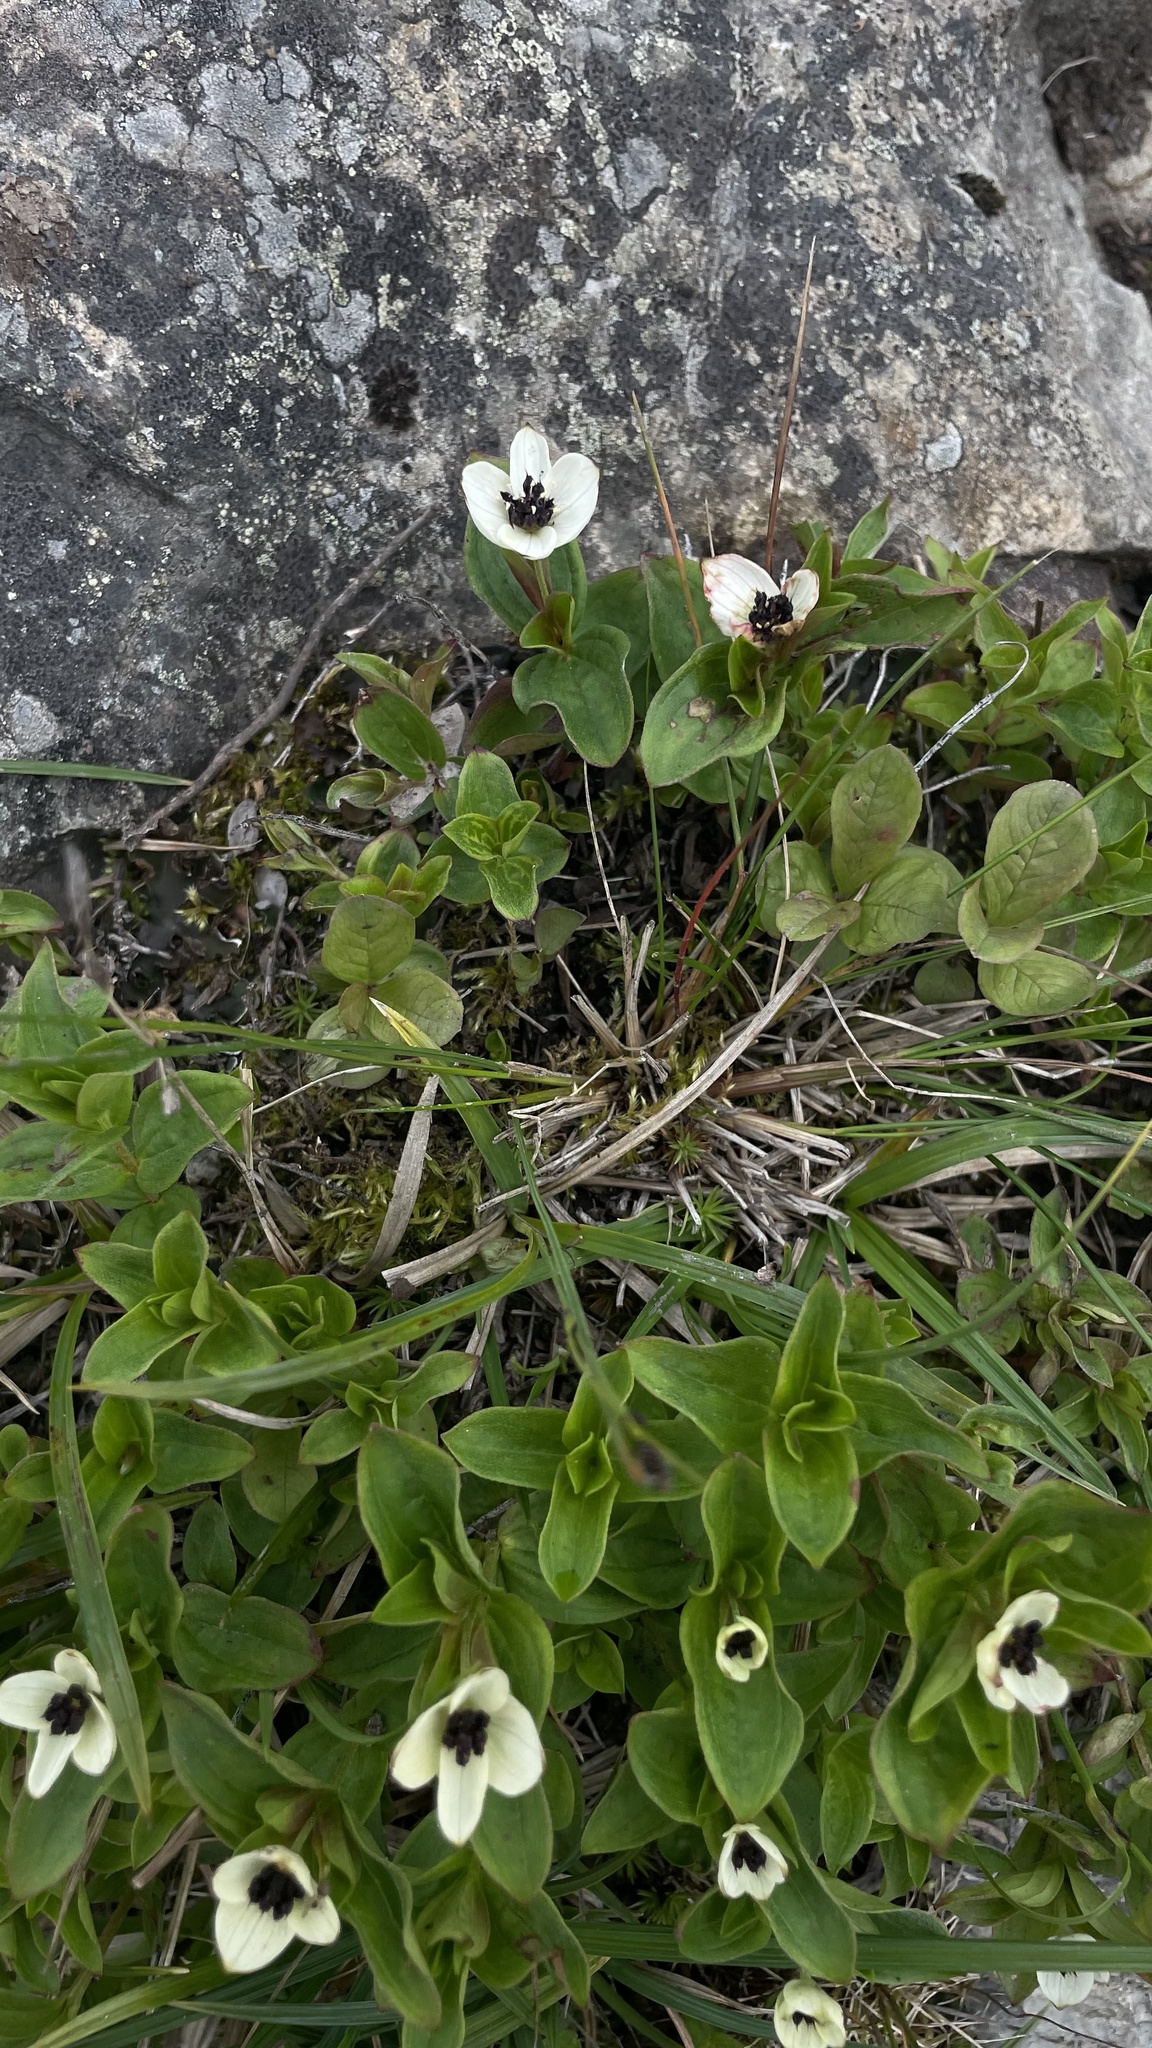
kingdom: Plantae
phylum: Tracheophyta
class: Magnoliopsida
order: Cornales
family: Cornaceae
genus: Cornus
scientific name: Cornus suecica
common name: Dwarf cornel
